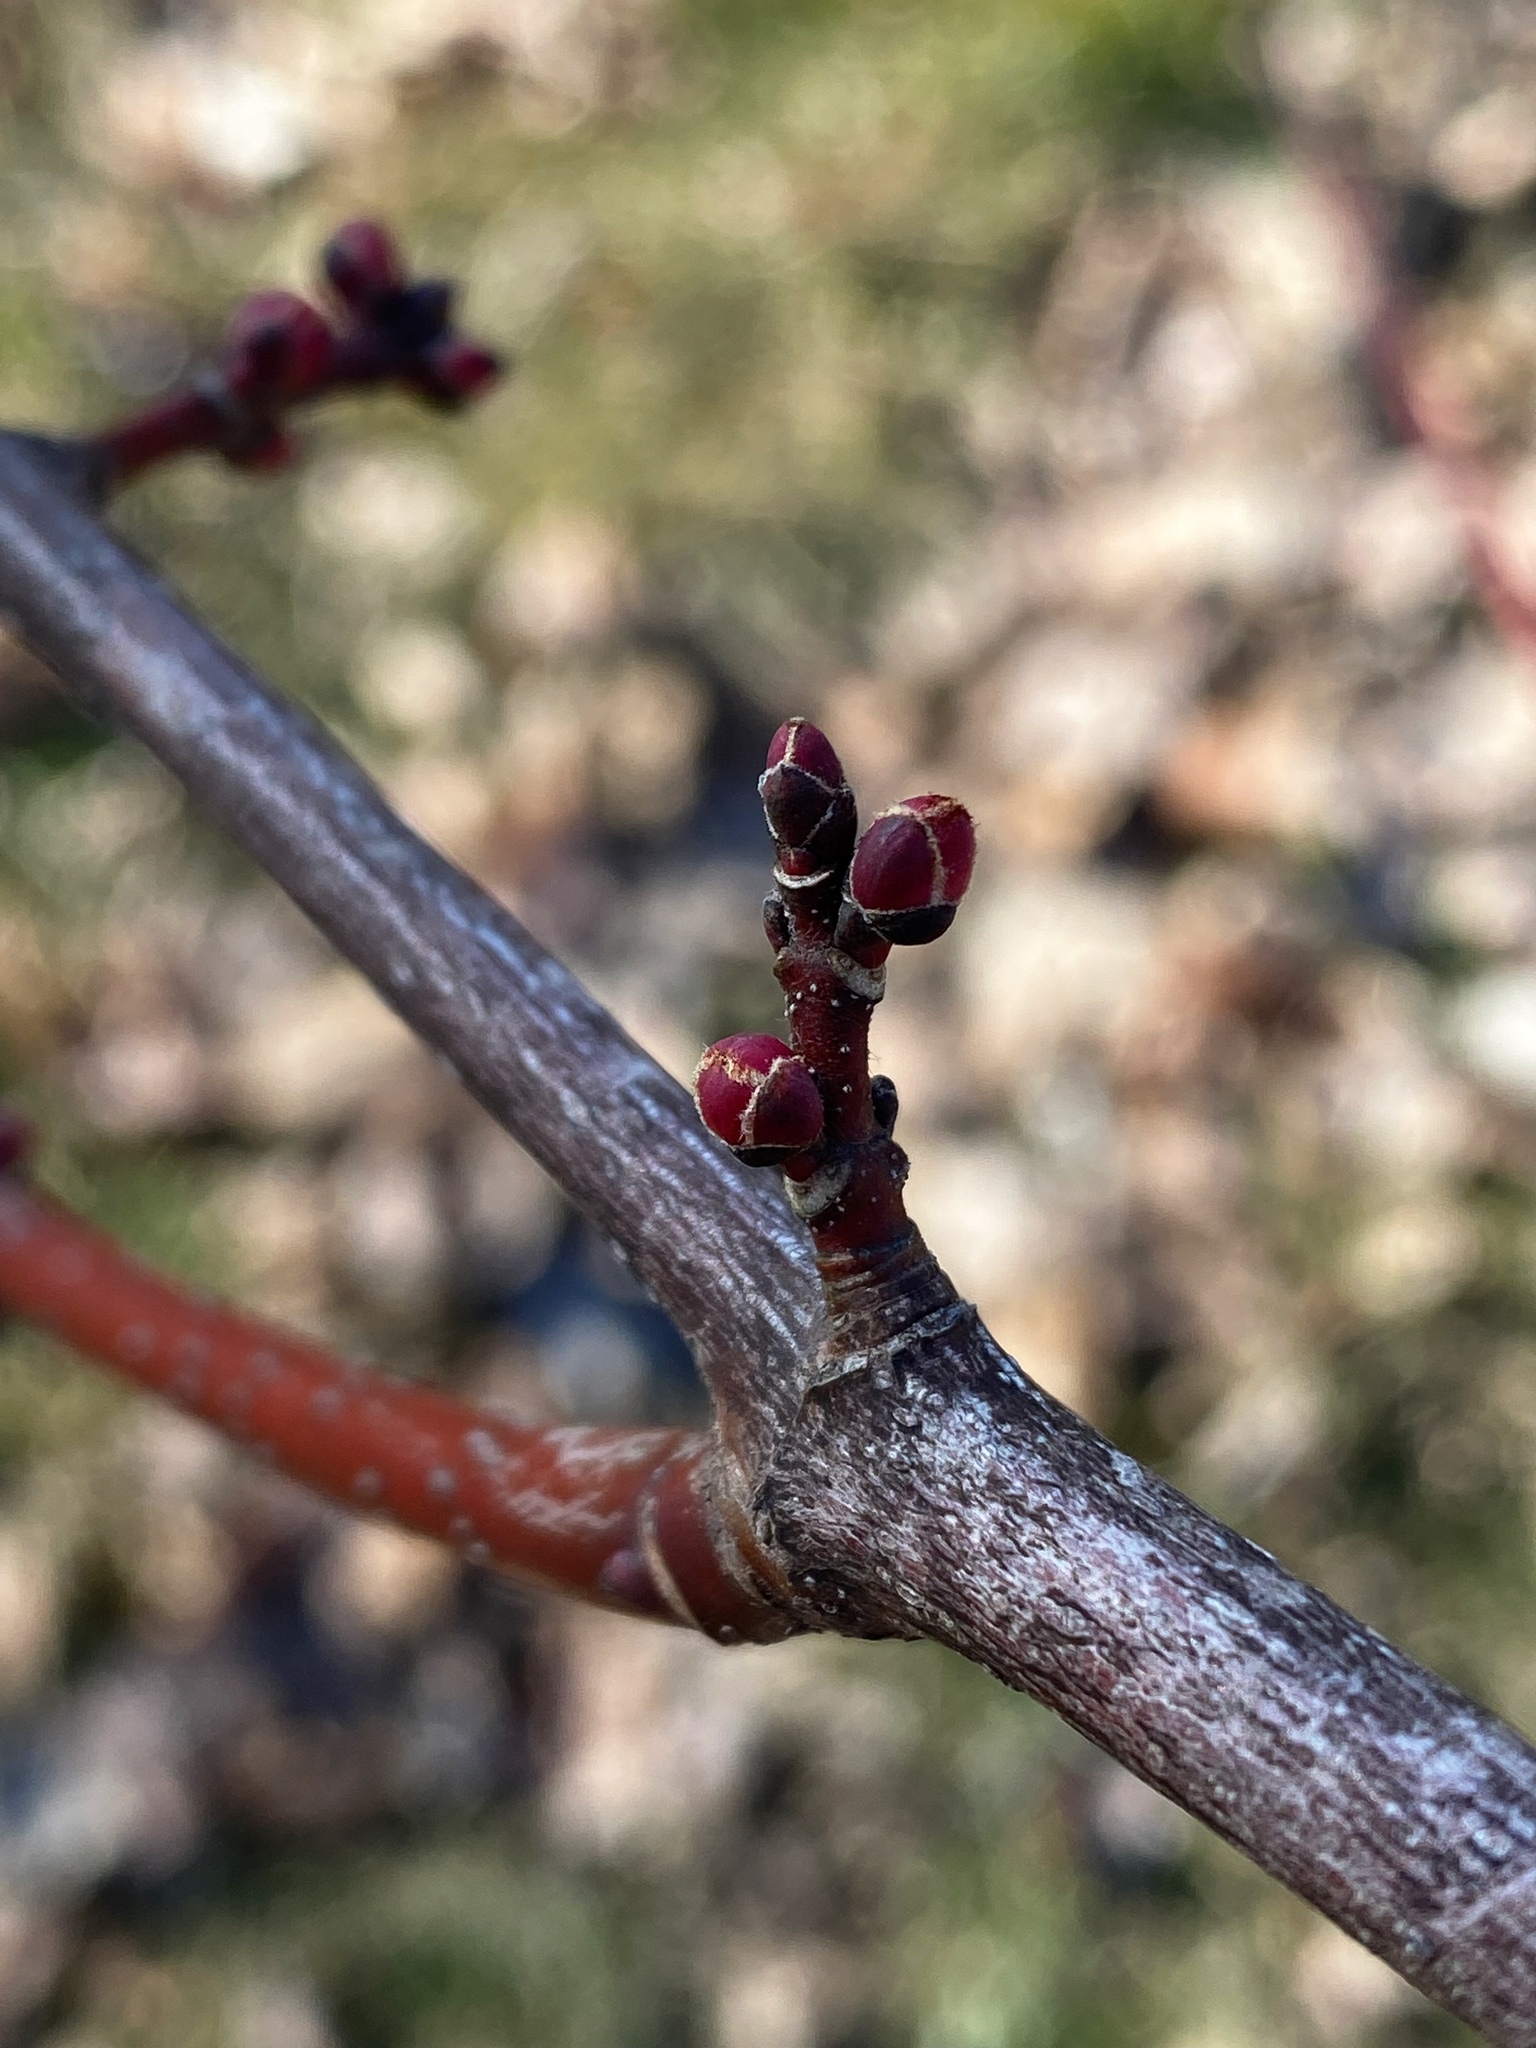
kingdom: Plantae
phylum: Tracheophyta
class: Magnoliopsida
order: Sapindales
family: Sapindaceae
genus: Acer
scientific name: Acer rubrum
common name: Red maple
